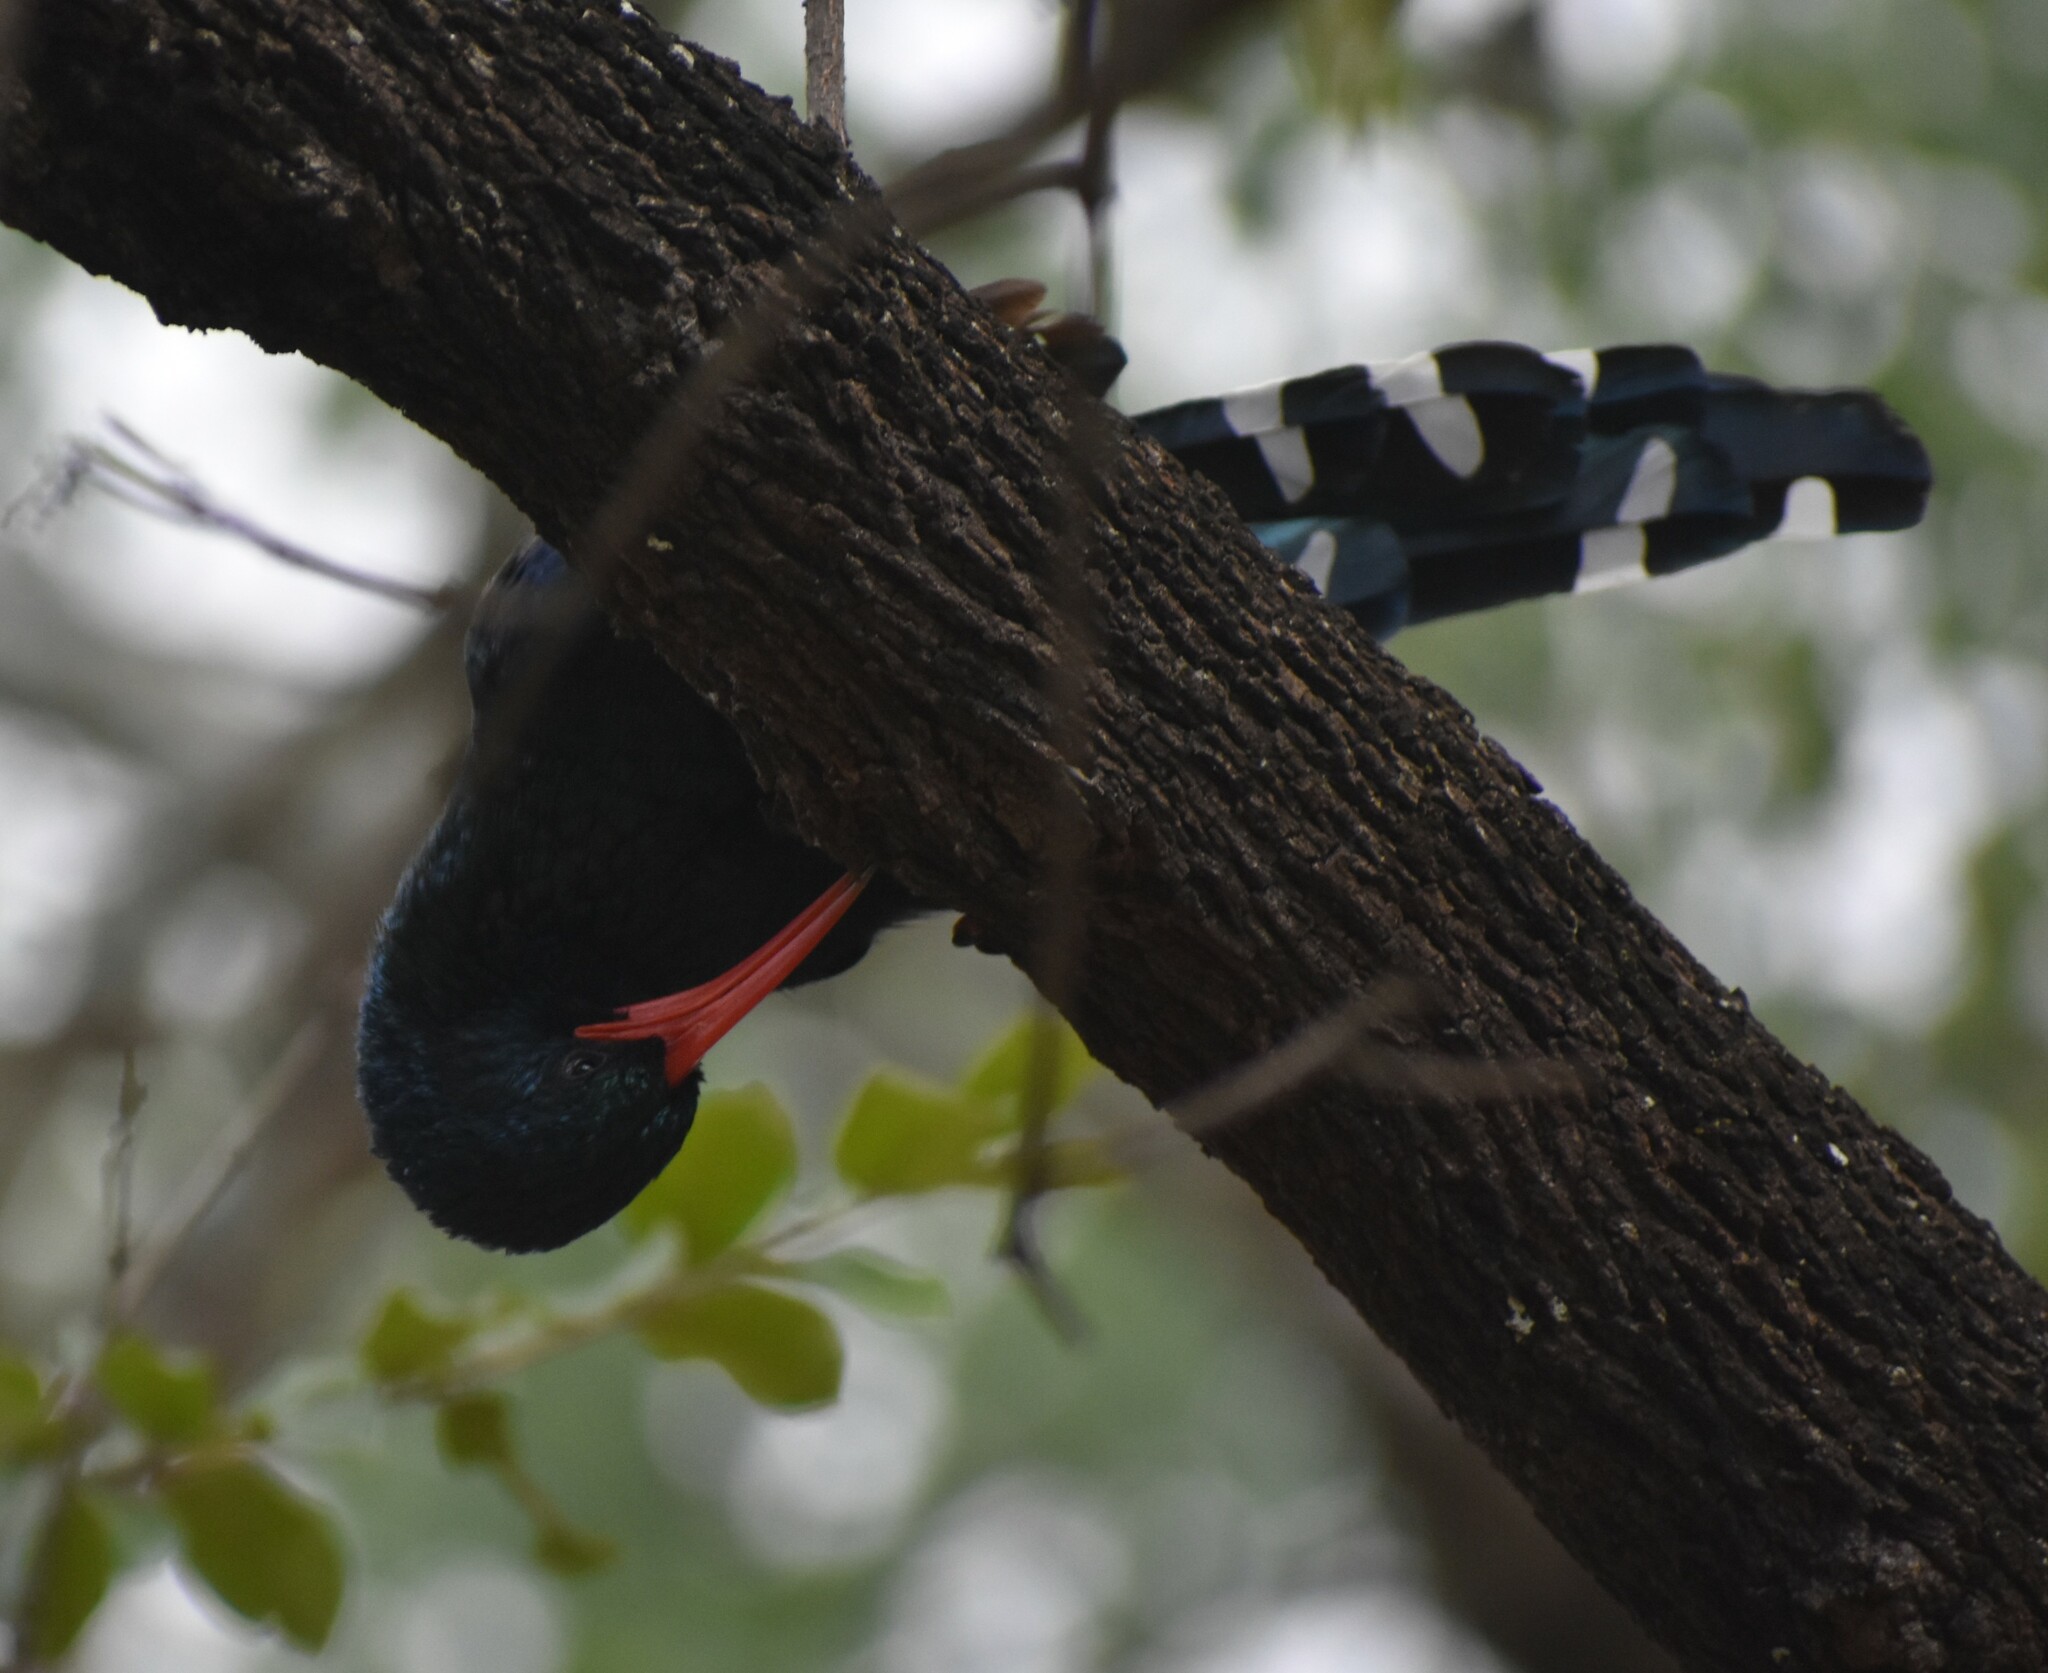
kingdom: Animalia
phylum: Chordata
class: Aves
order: Bucerotiformes
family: Phoeniculidae
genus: Phoeniculus
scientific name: Phoeniculus purpureus
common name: Green woodhoopoe
